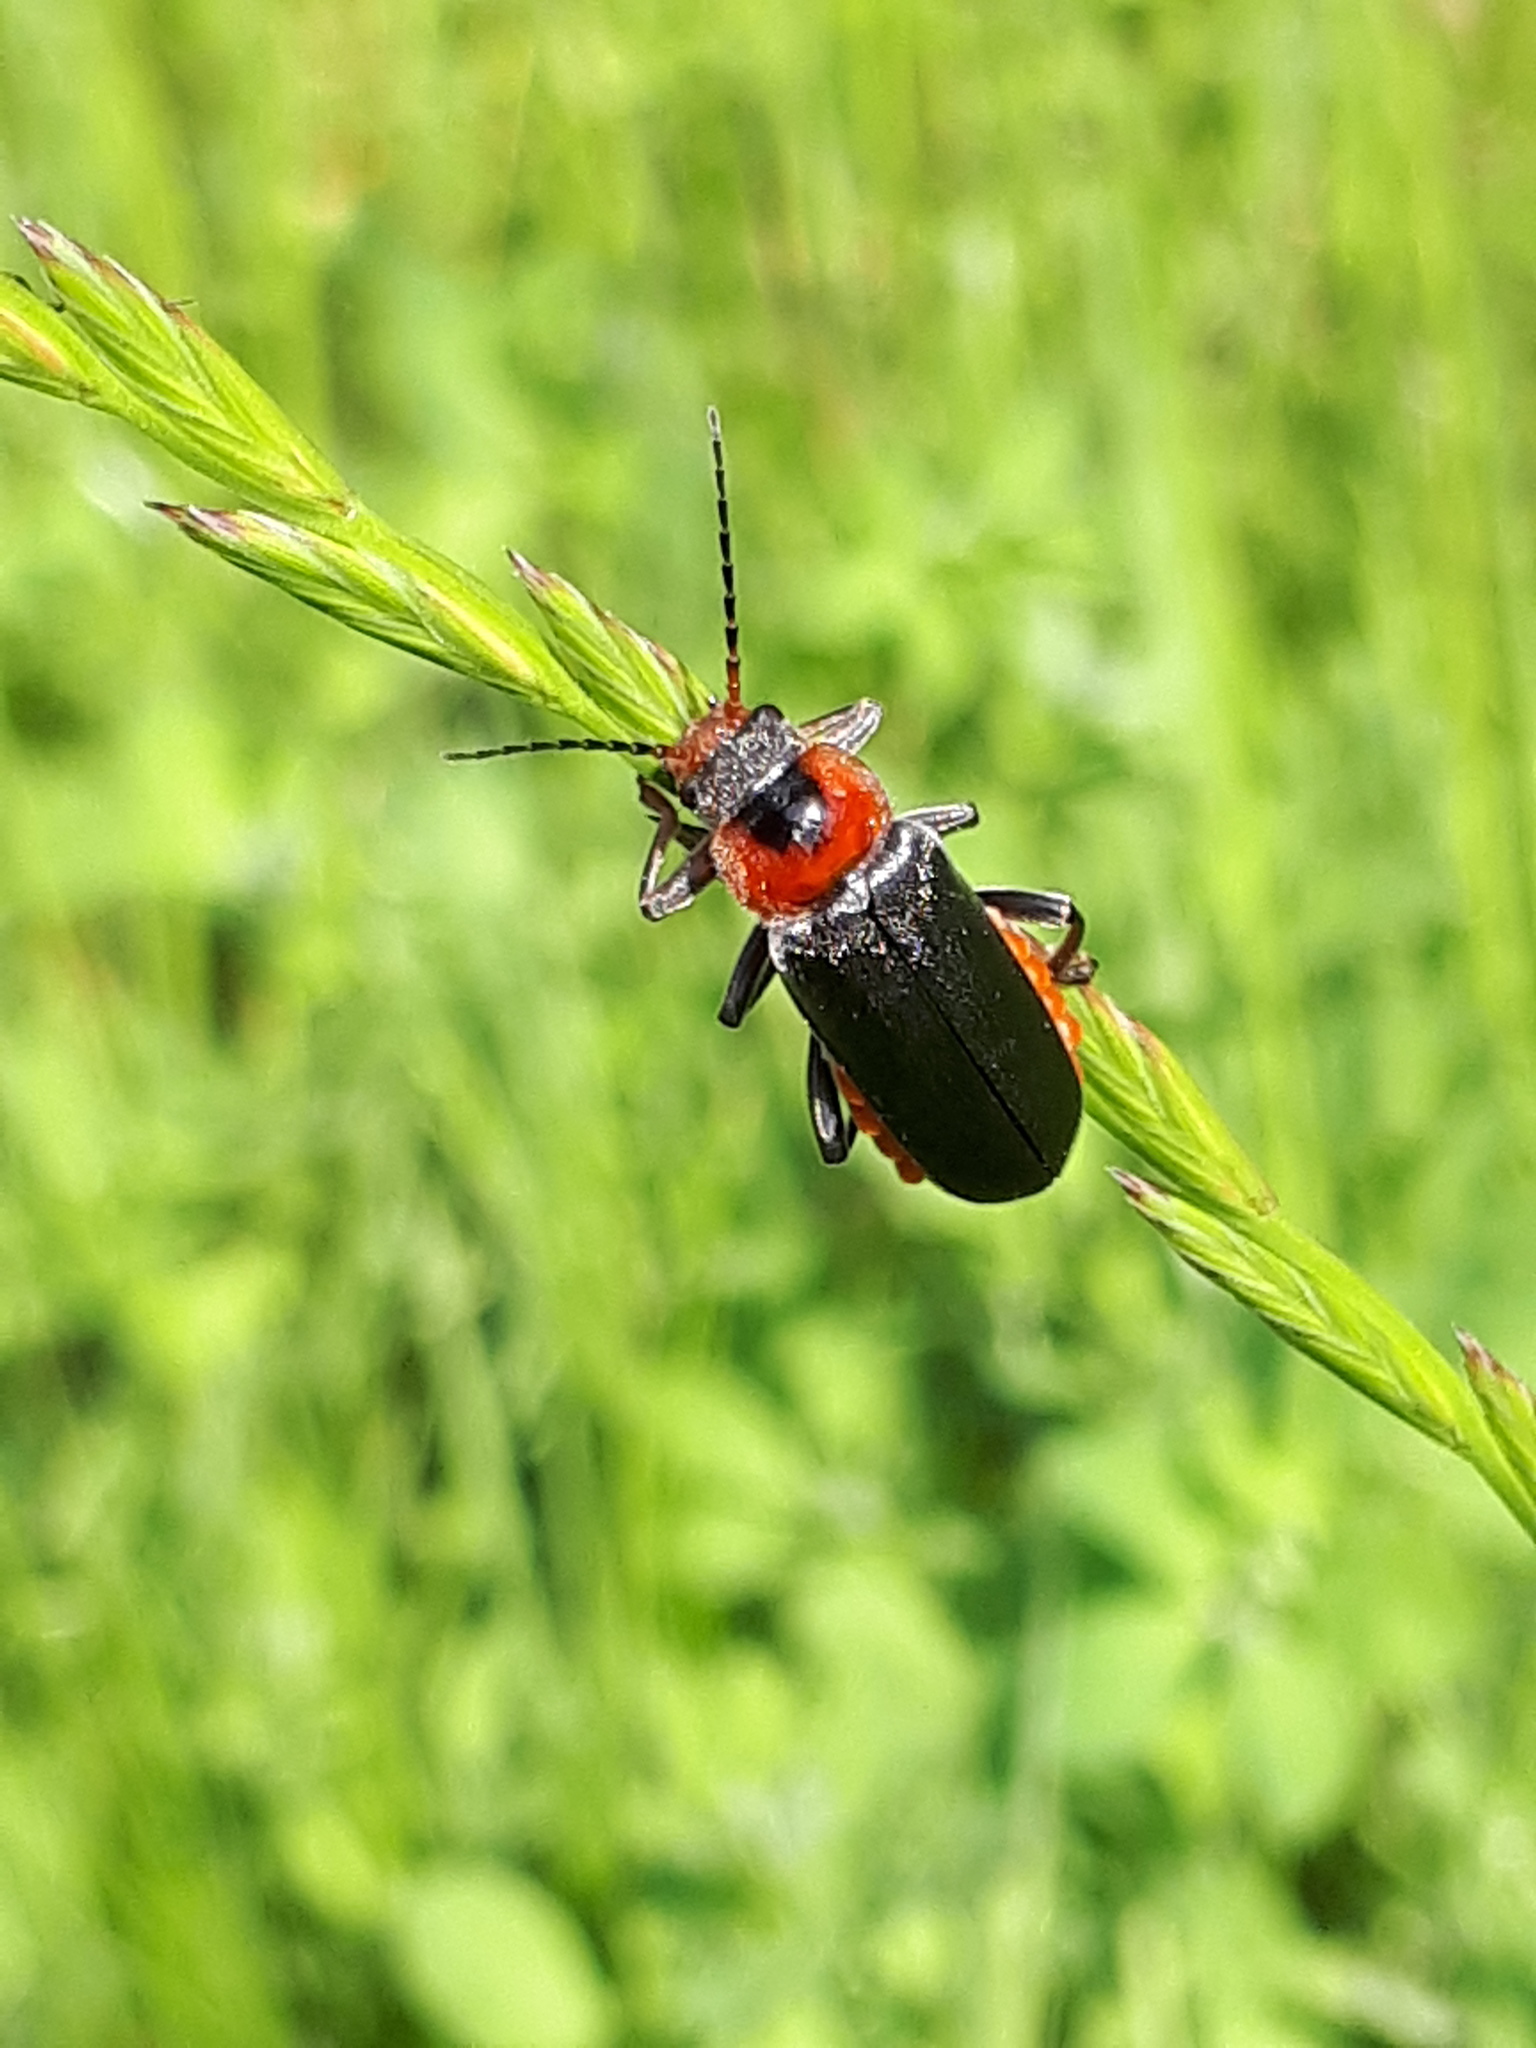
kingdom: Animalia
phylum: Arthropoda
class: Insecta
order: Coleoptera
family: Cantharidae
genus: Cantharis
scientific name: Cantharis fusca
